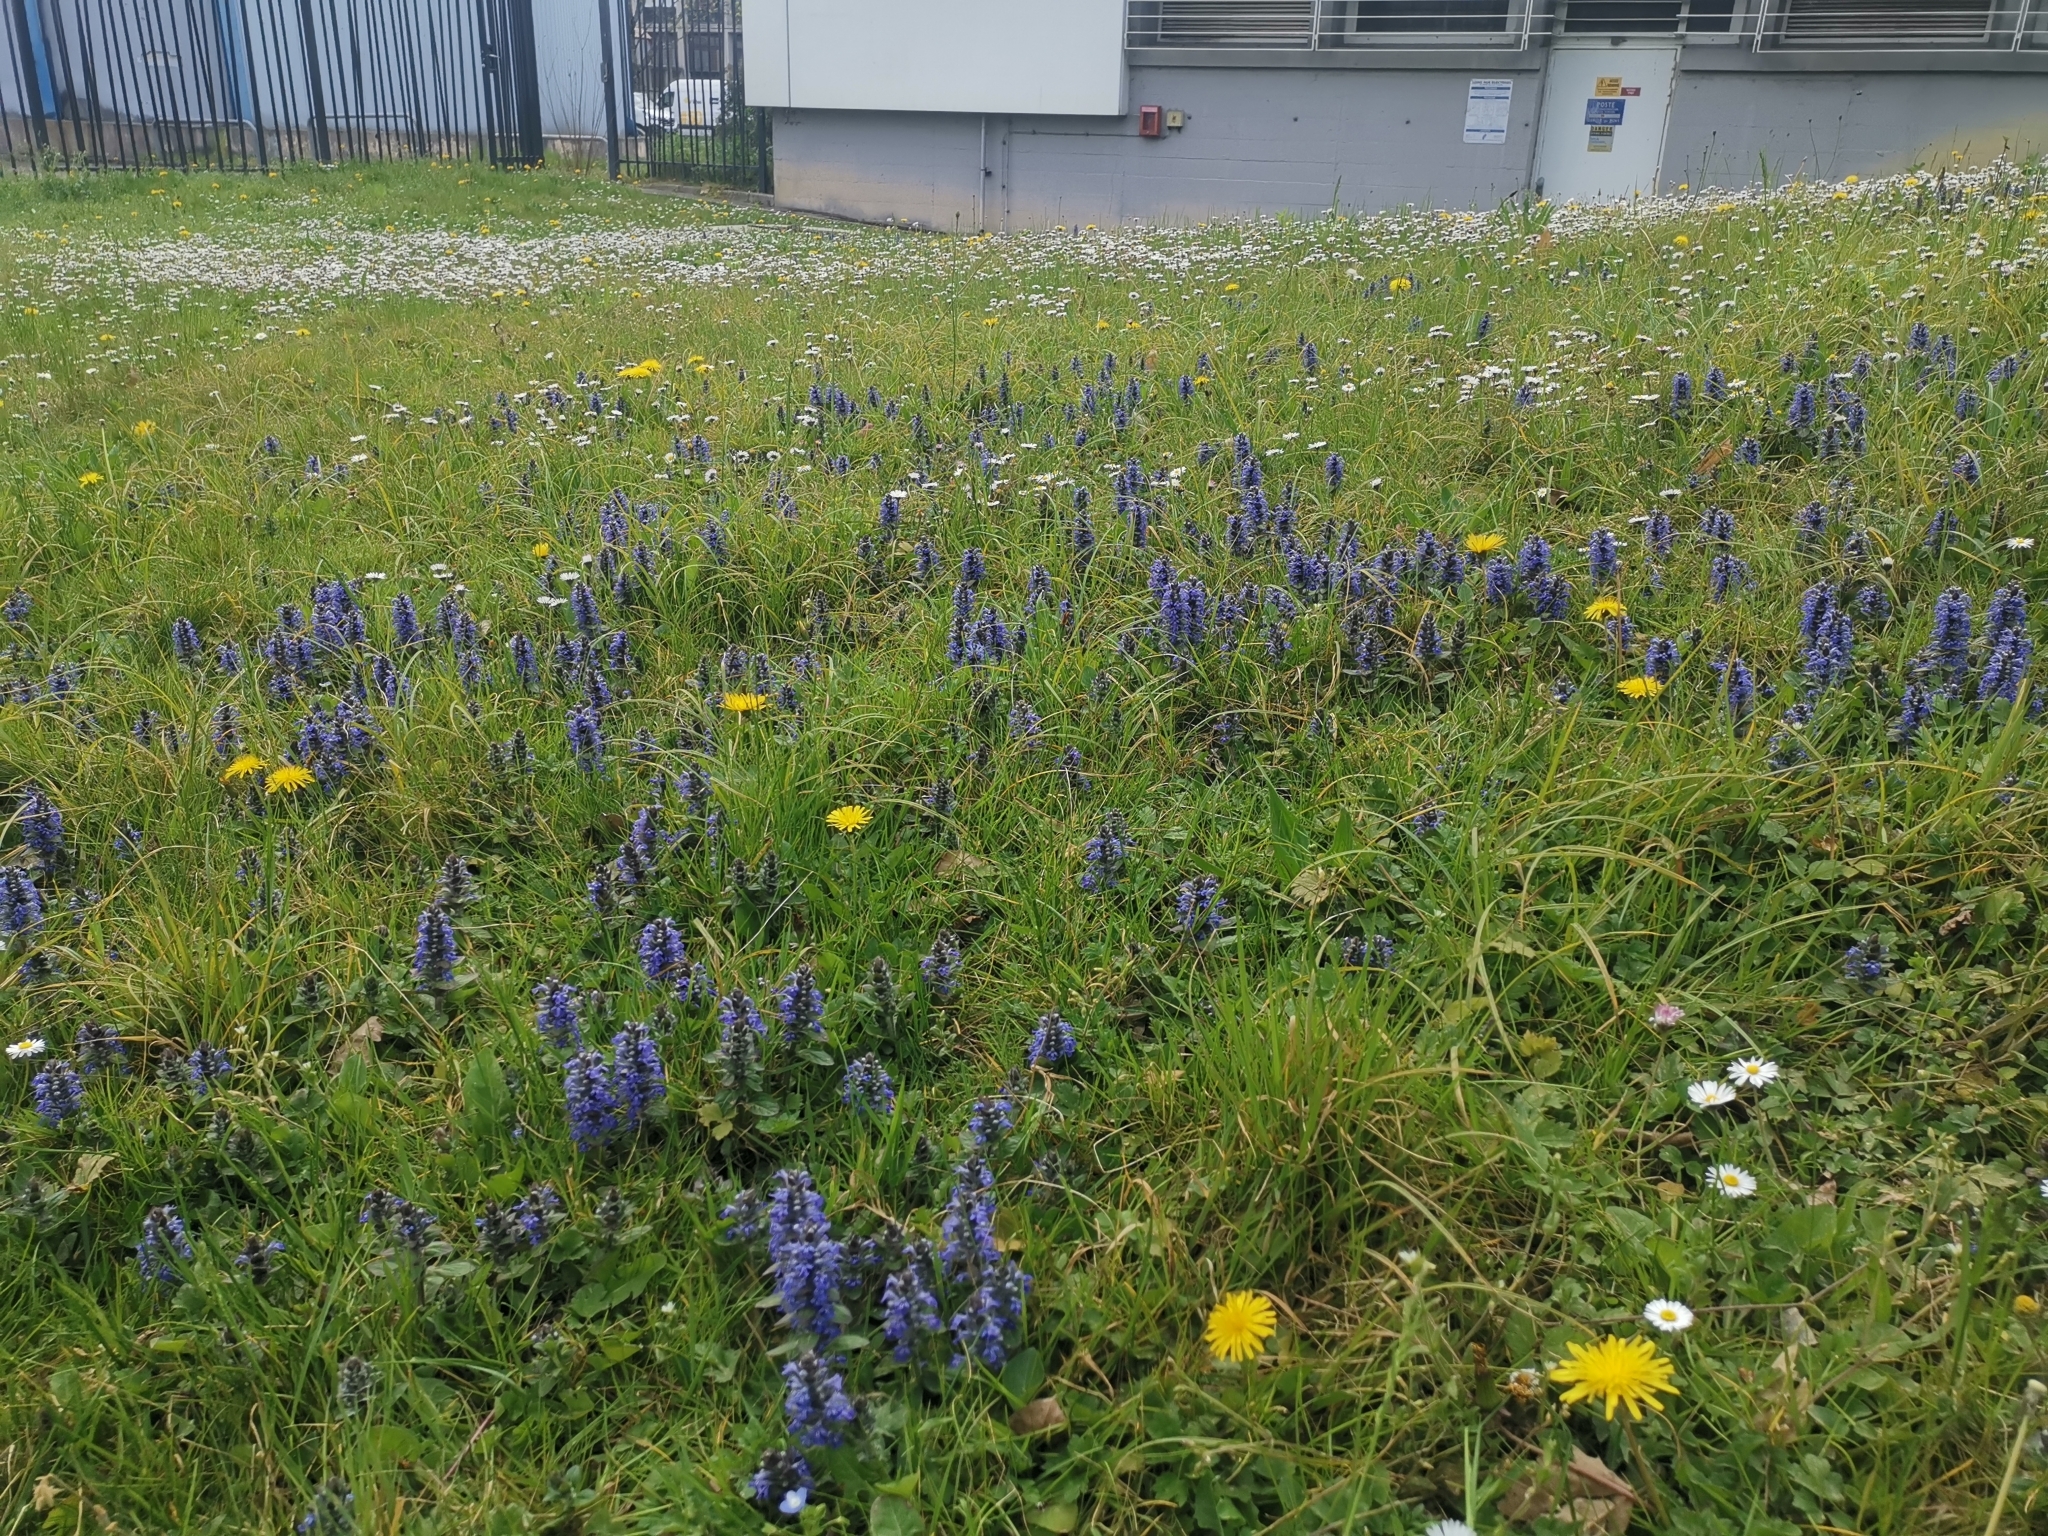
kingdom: Plantae
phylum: Tracheophyta
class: Magnoliopsida
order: Lamiales
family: Lamiaceae
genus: Ajuga
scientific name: Ajuga reptans
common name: Bugle
